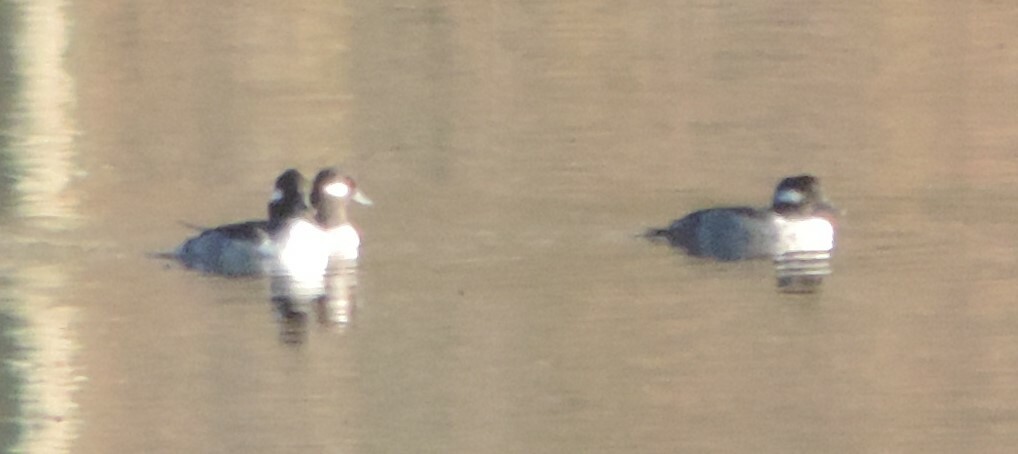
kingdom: Animalia
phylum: Chordata
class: Aves
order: Anseriformes
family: Anatidae
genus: Bucephala
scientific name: Bucephala albeola
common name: Bufflehead
